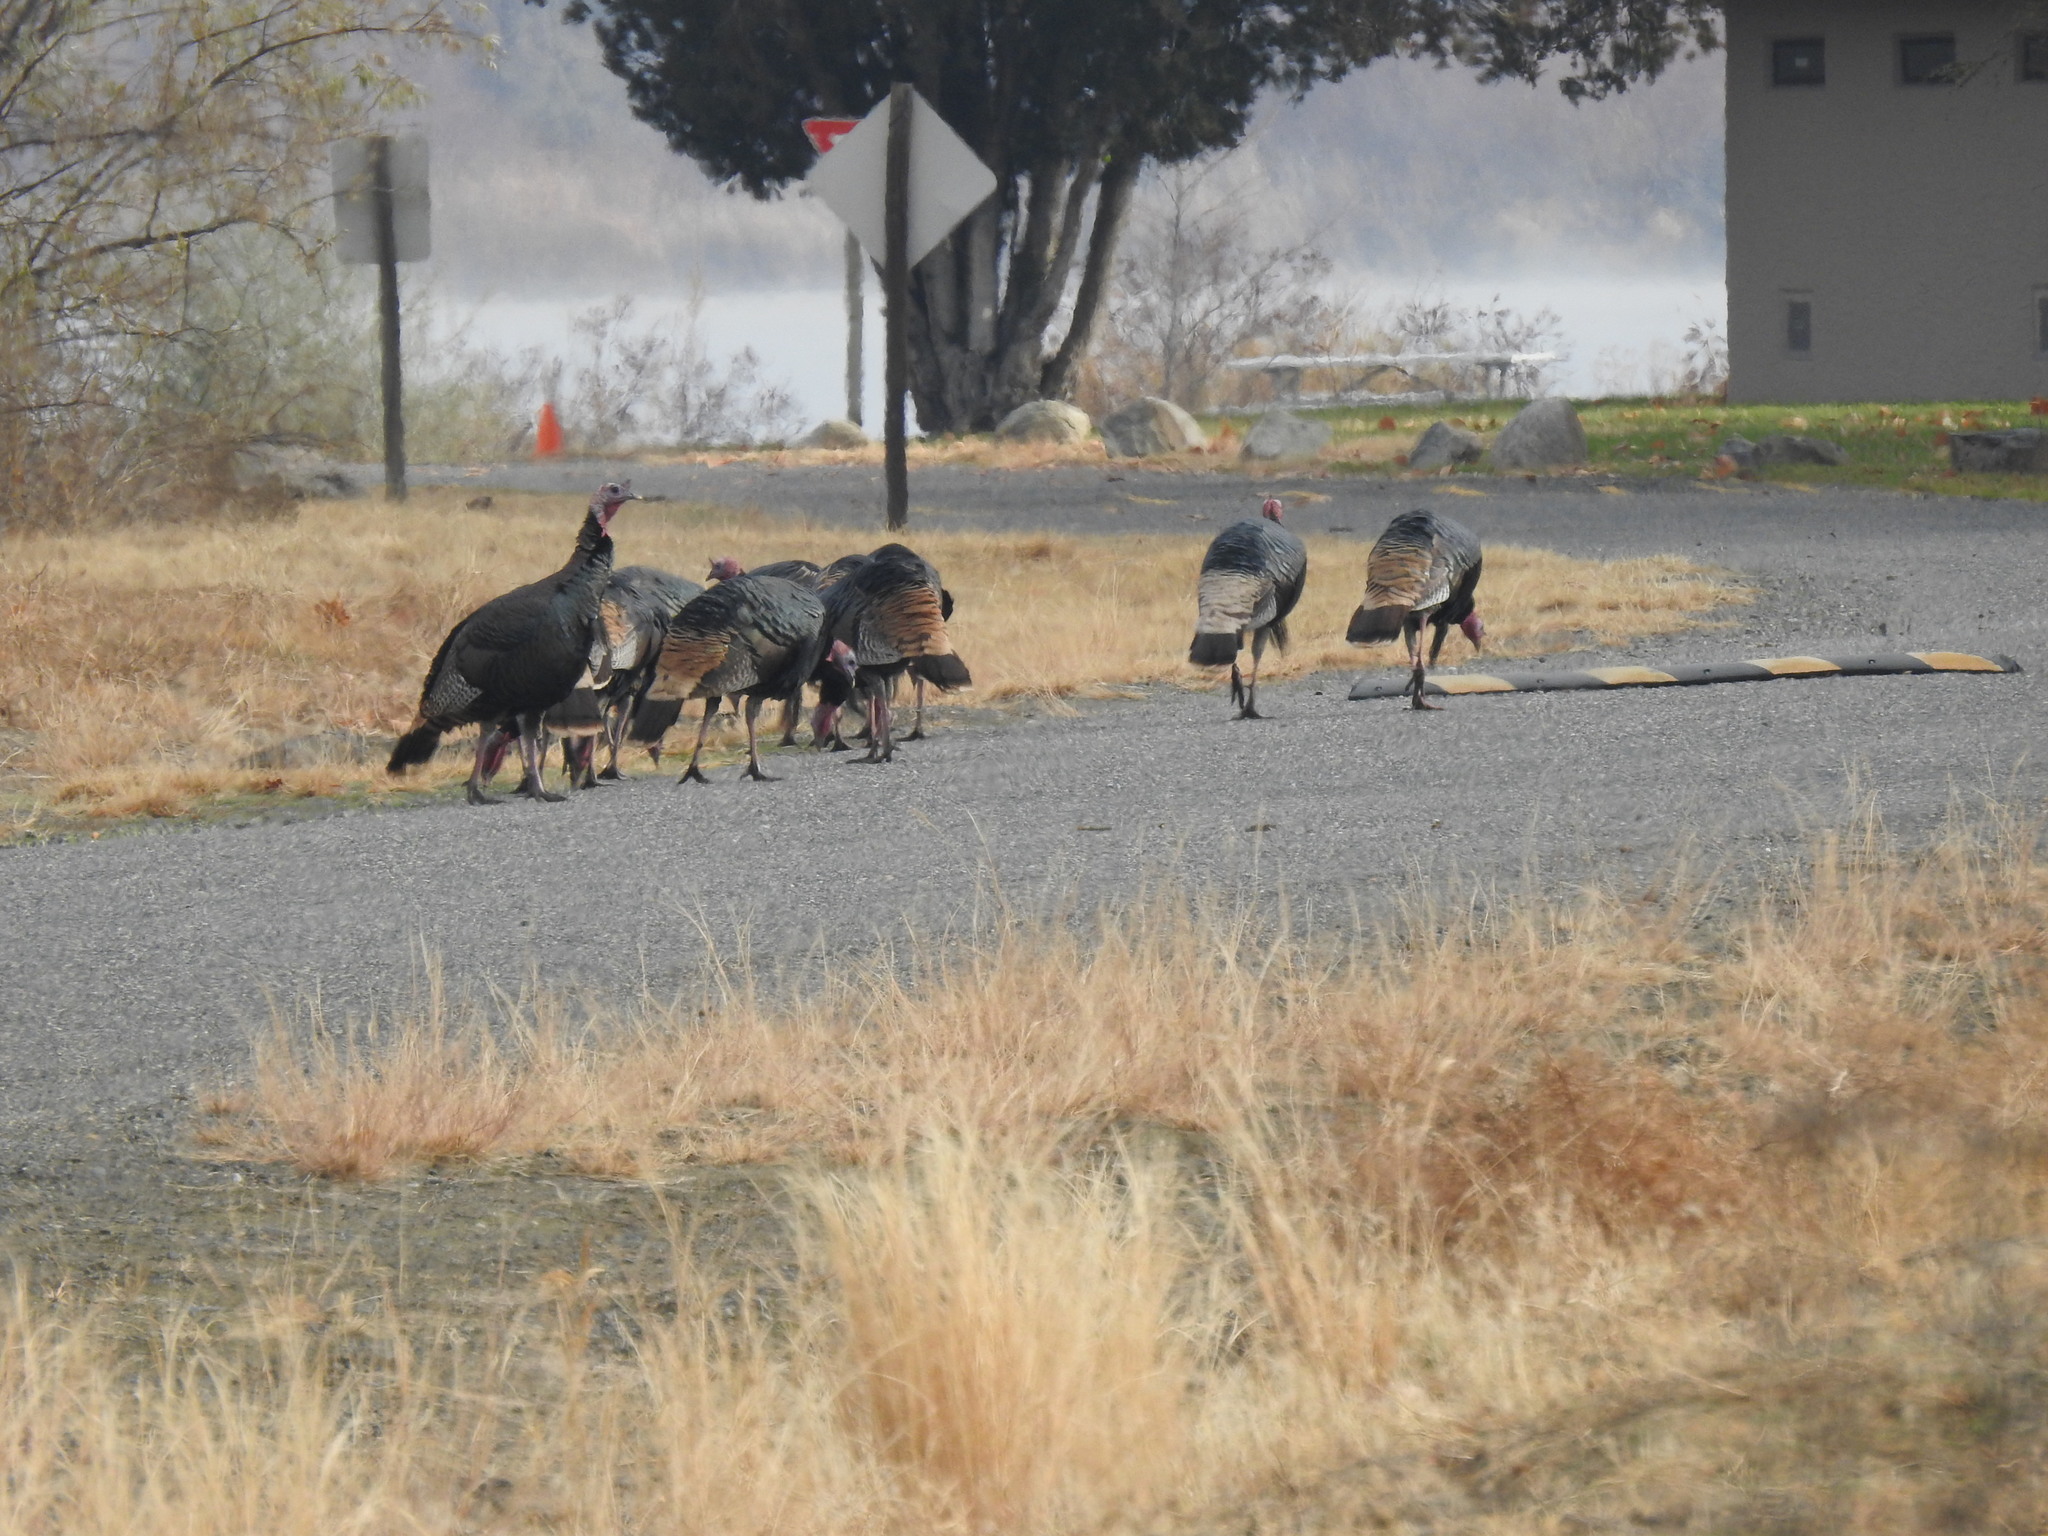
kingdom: Animalia
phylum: Chordata
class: Aves
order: Galliformes
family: Phasianidae
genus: Meleagris
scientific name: Meleagris gallopavo
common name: Wild turkey
